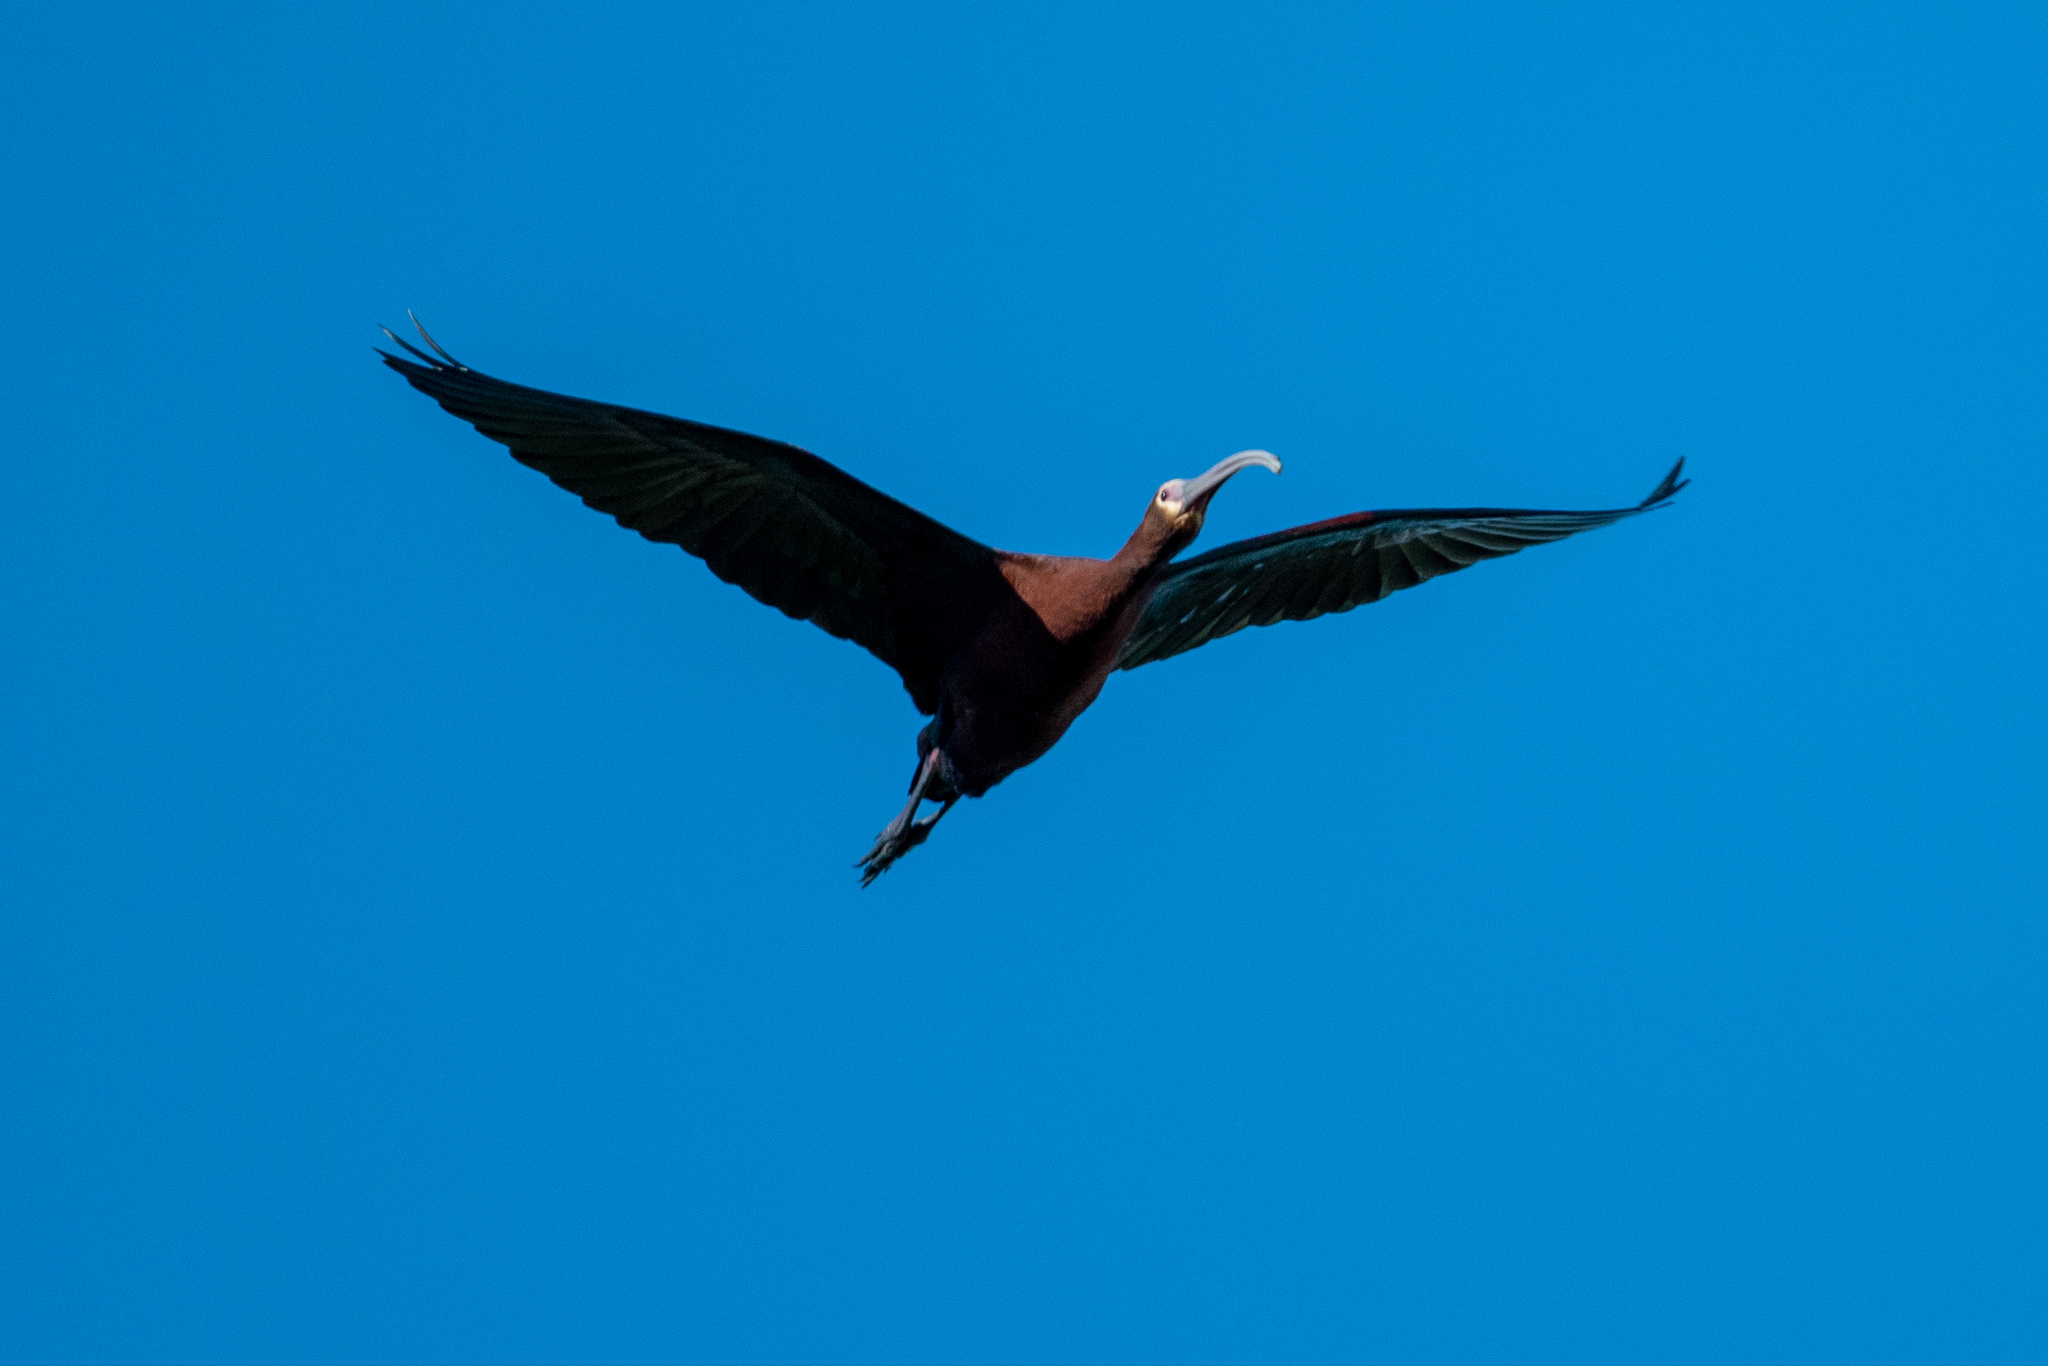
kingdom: Animalia
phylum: Chordata
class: Aves
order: Pelecaniformes
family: Threskiornithidae
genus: Plegadis
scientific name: Plegadis chihi
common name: White-faced ibis
